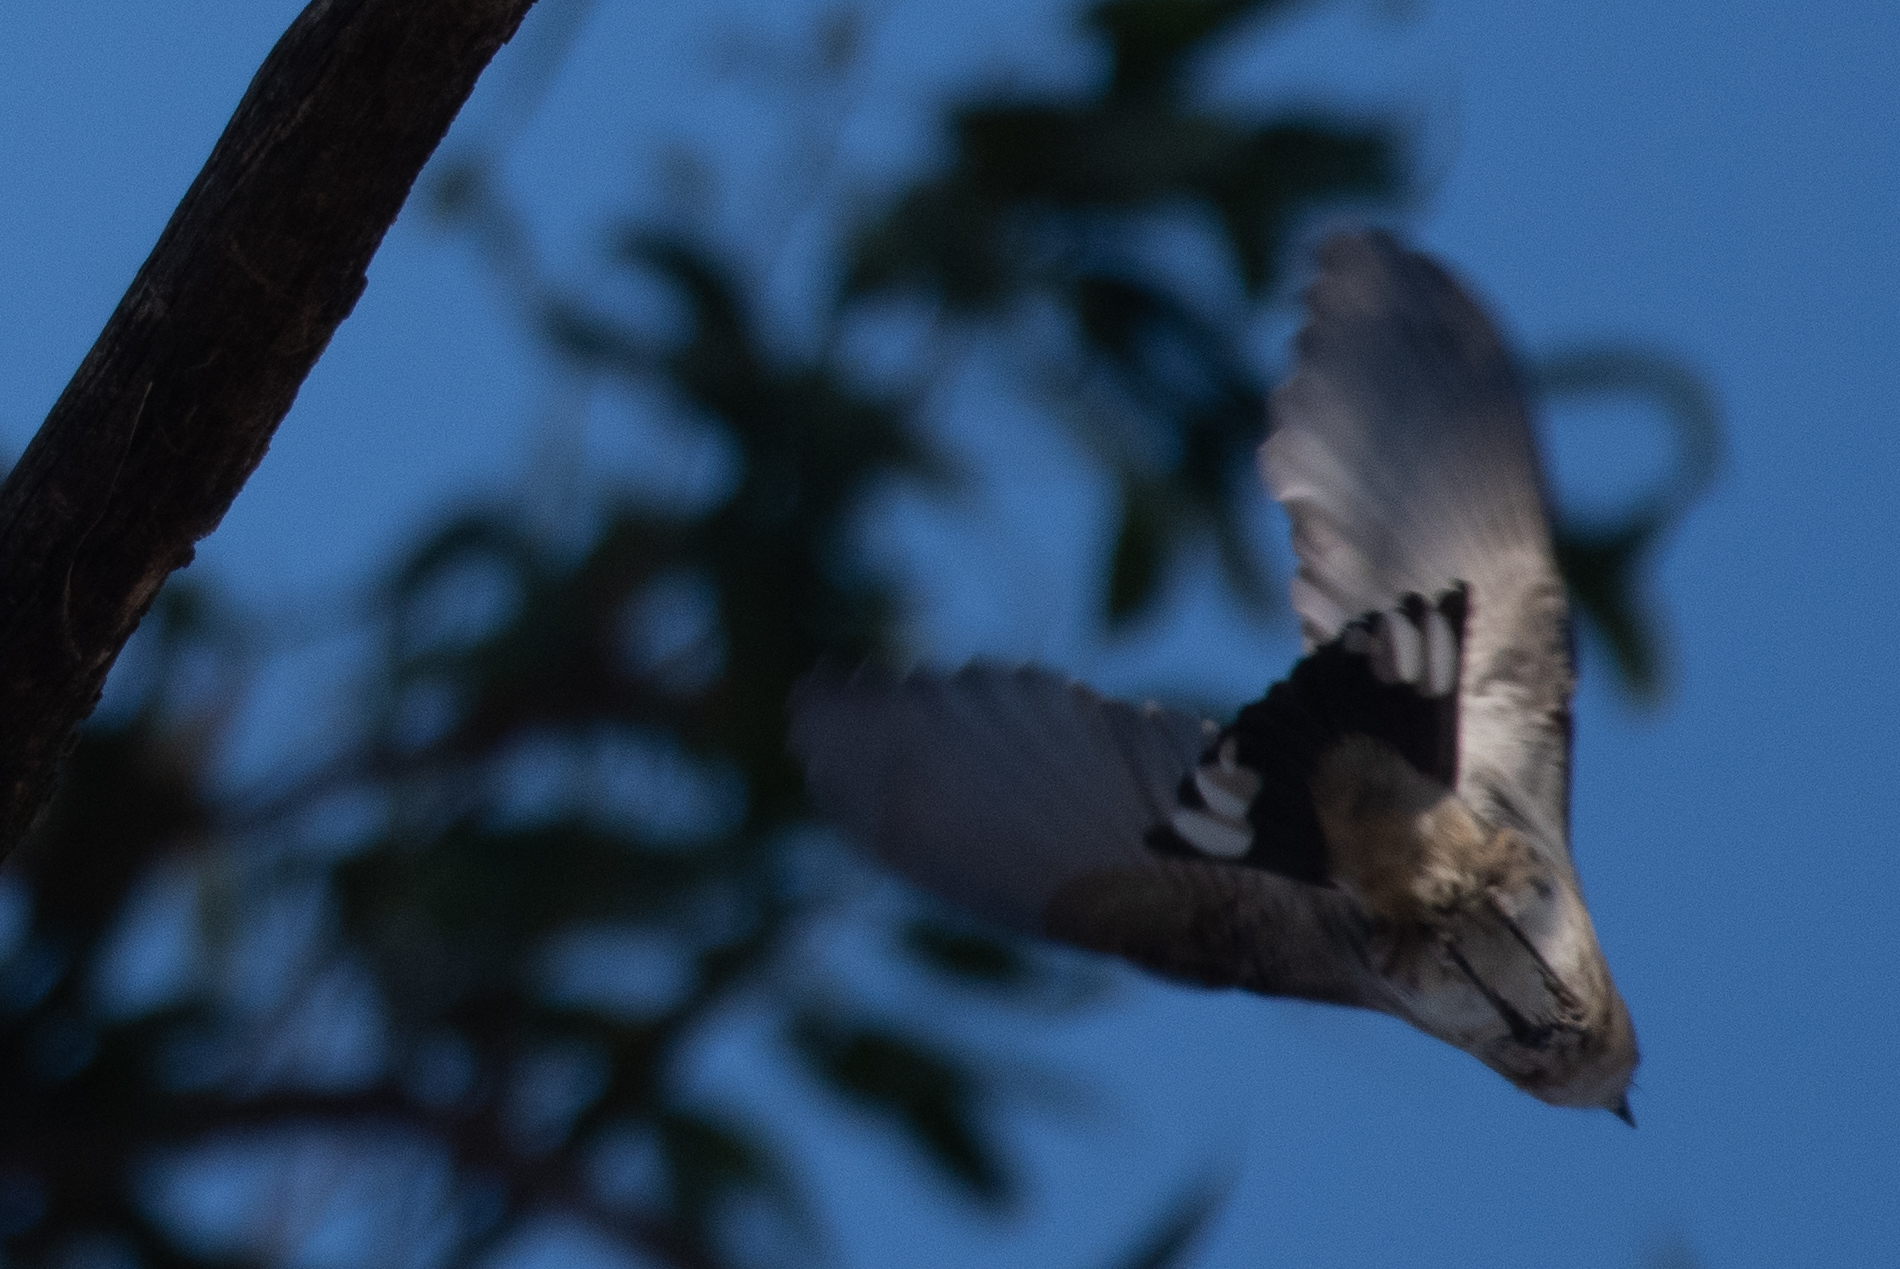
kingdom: Animalia
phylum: Chordata
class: Aves
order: Passeriformes
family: Parulidae
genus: Setophaga
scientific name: Setophaga coronata
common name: Myrtle warbler
